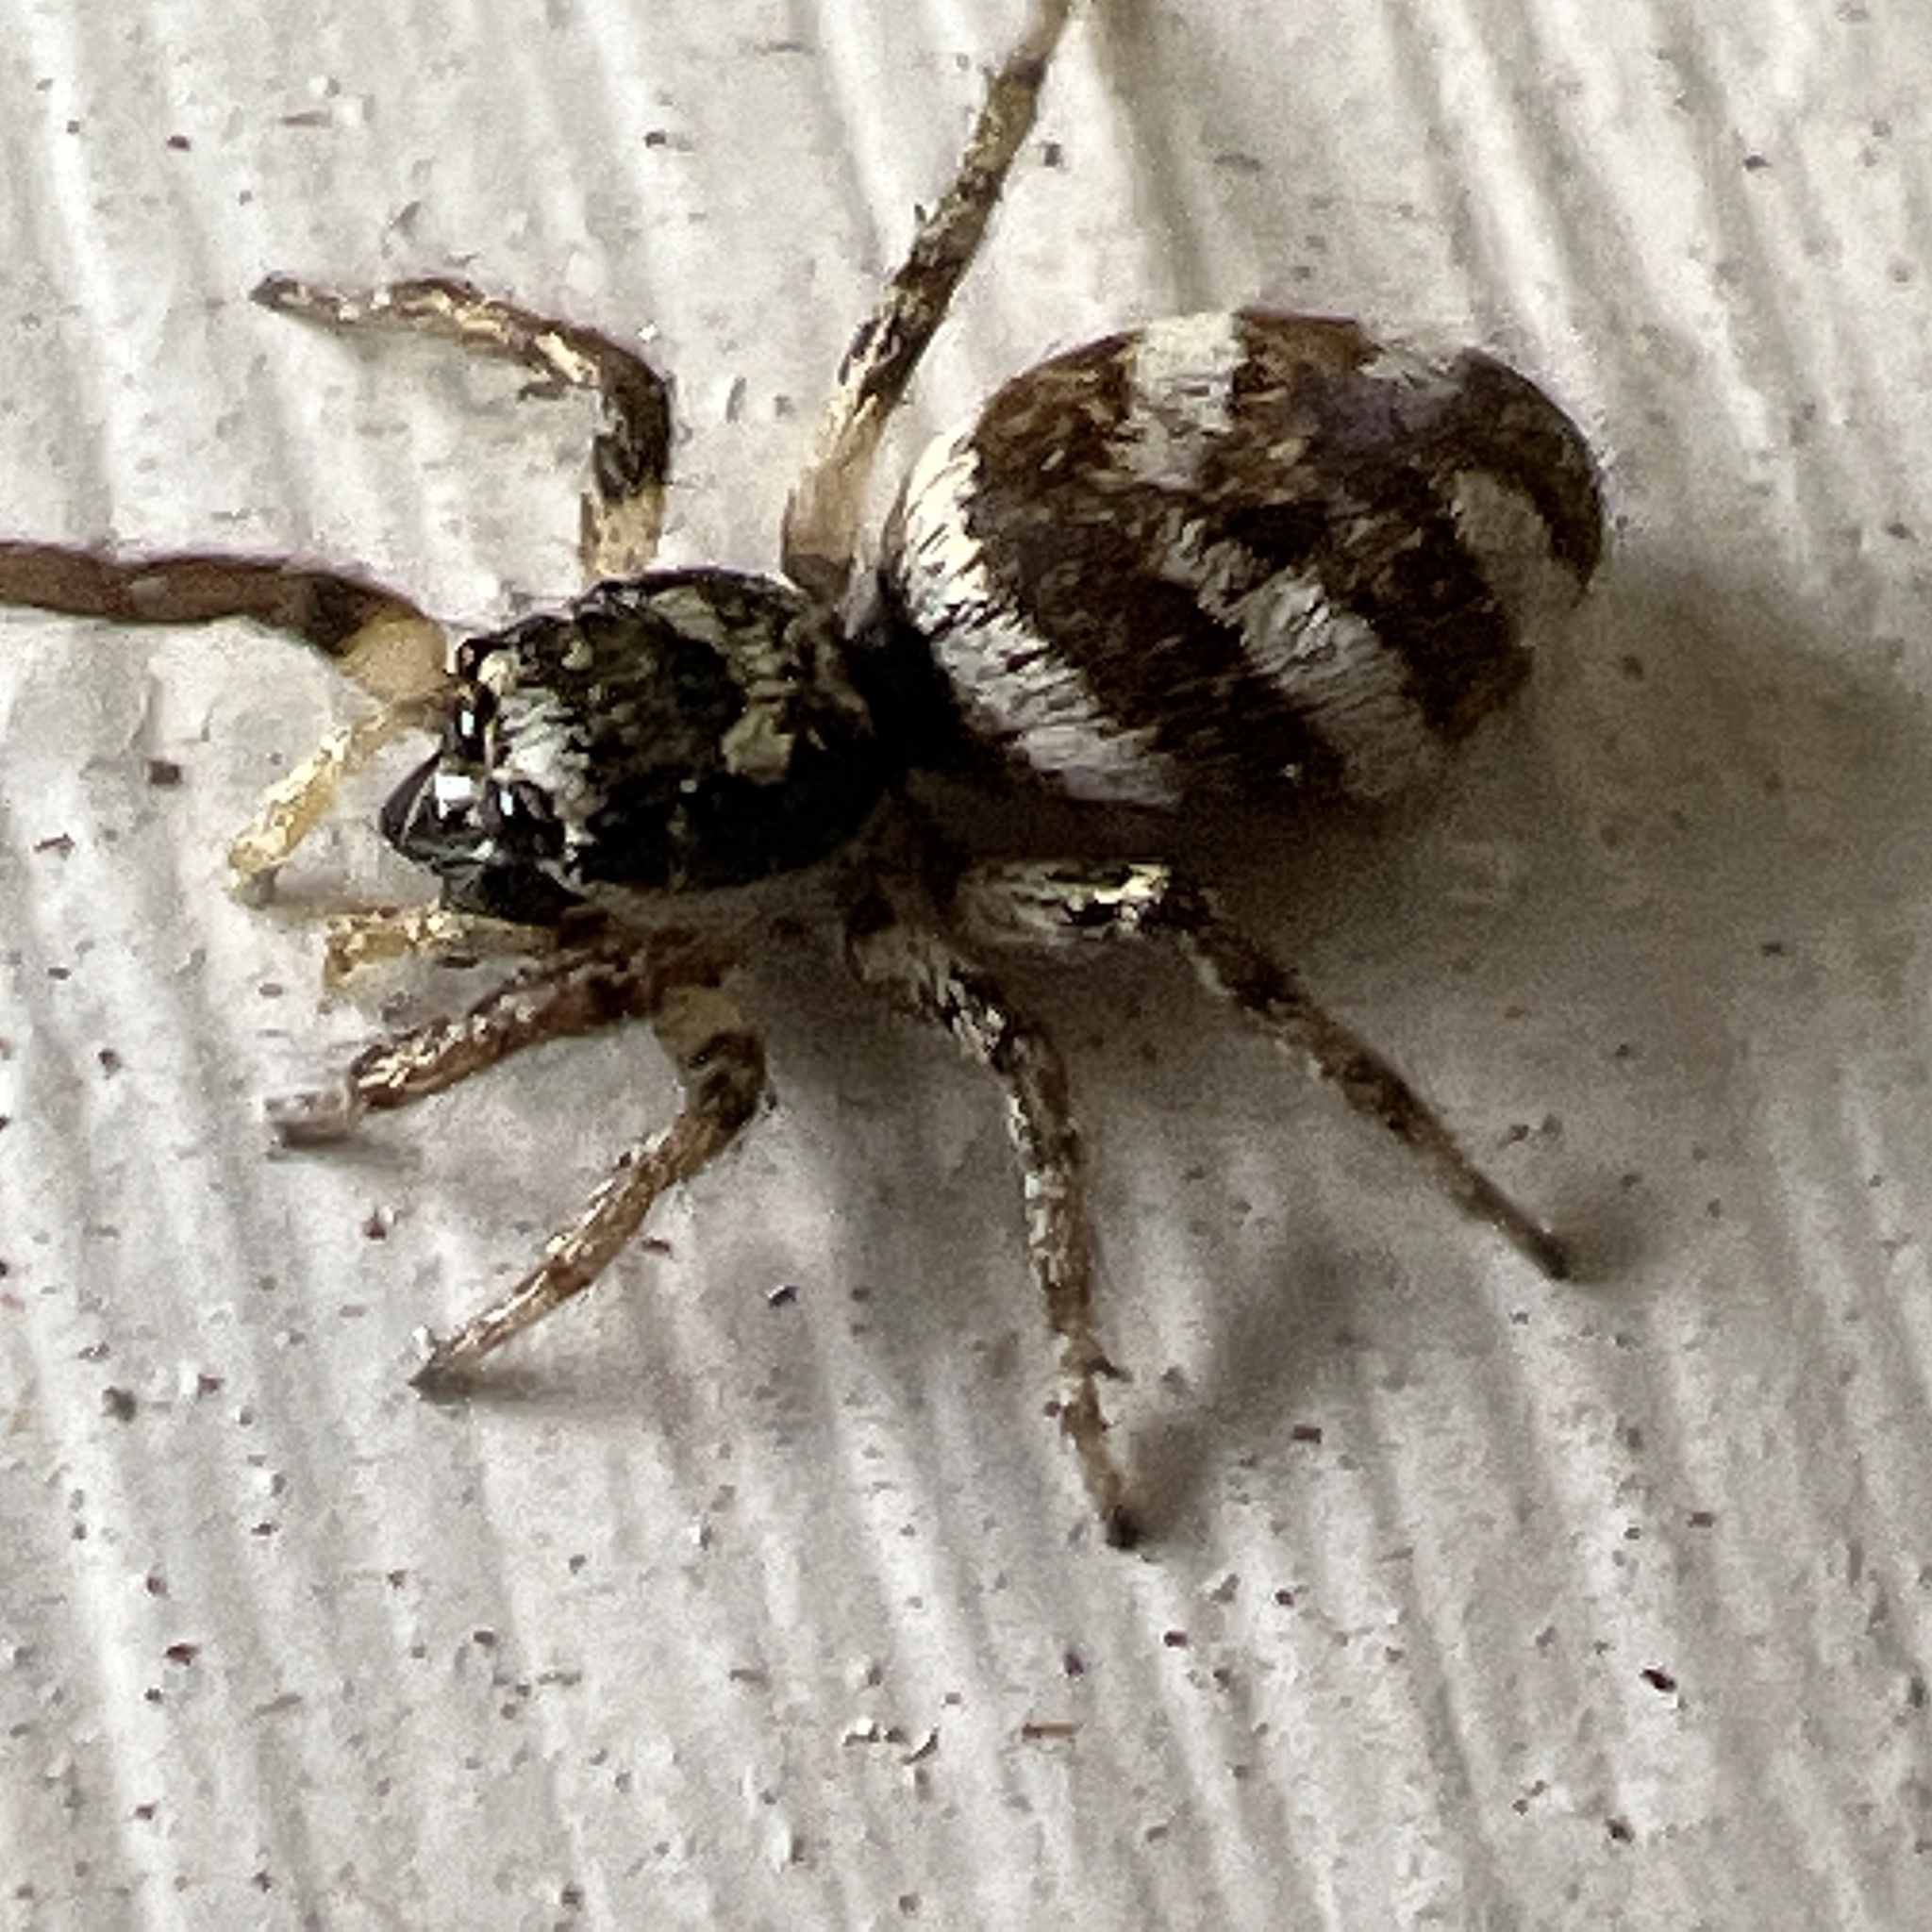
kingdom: Animalia
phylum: Arthropoda
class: Arachnida
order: Araneae
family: Salticidae
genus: Salticus
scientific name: Salticus scenicus
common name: Zebra jumper
